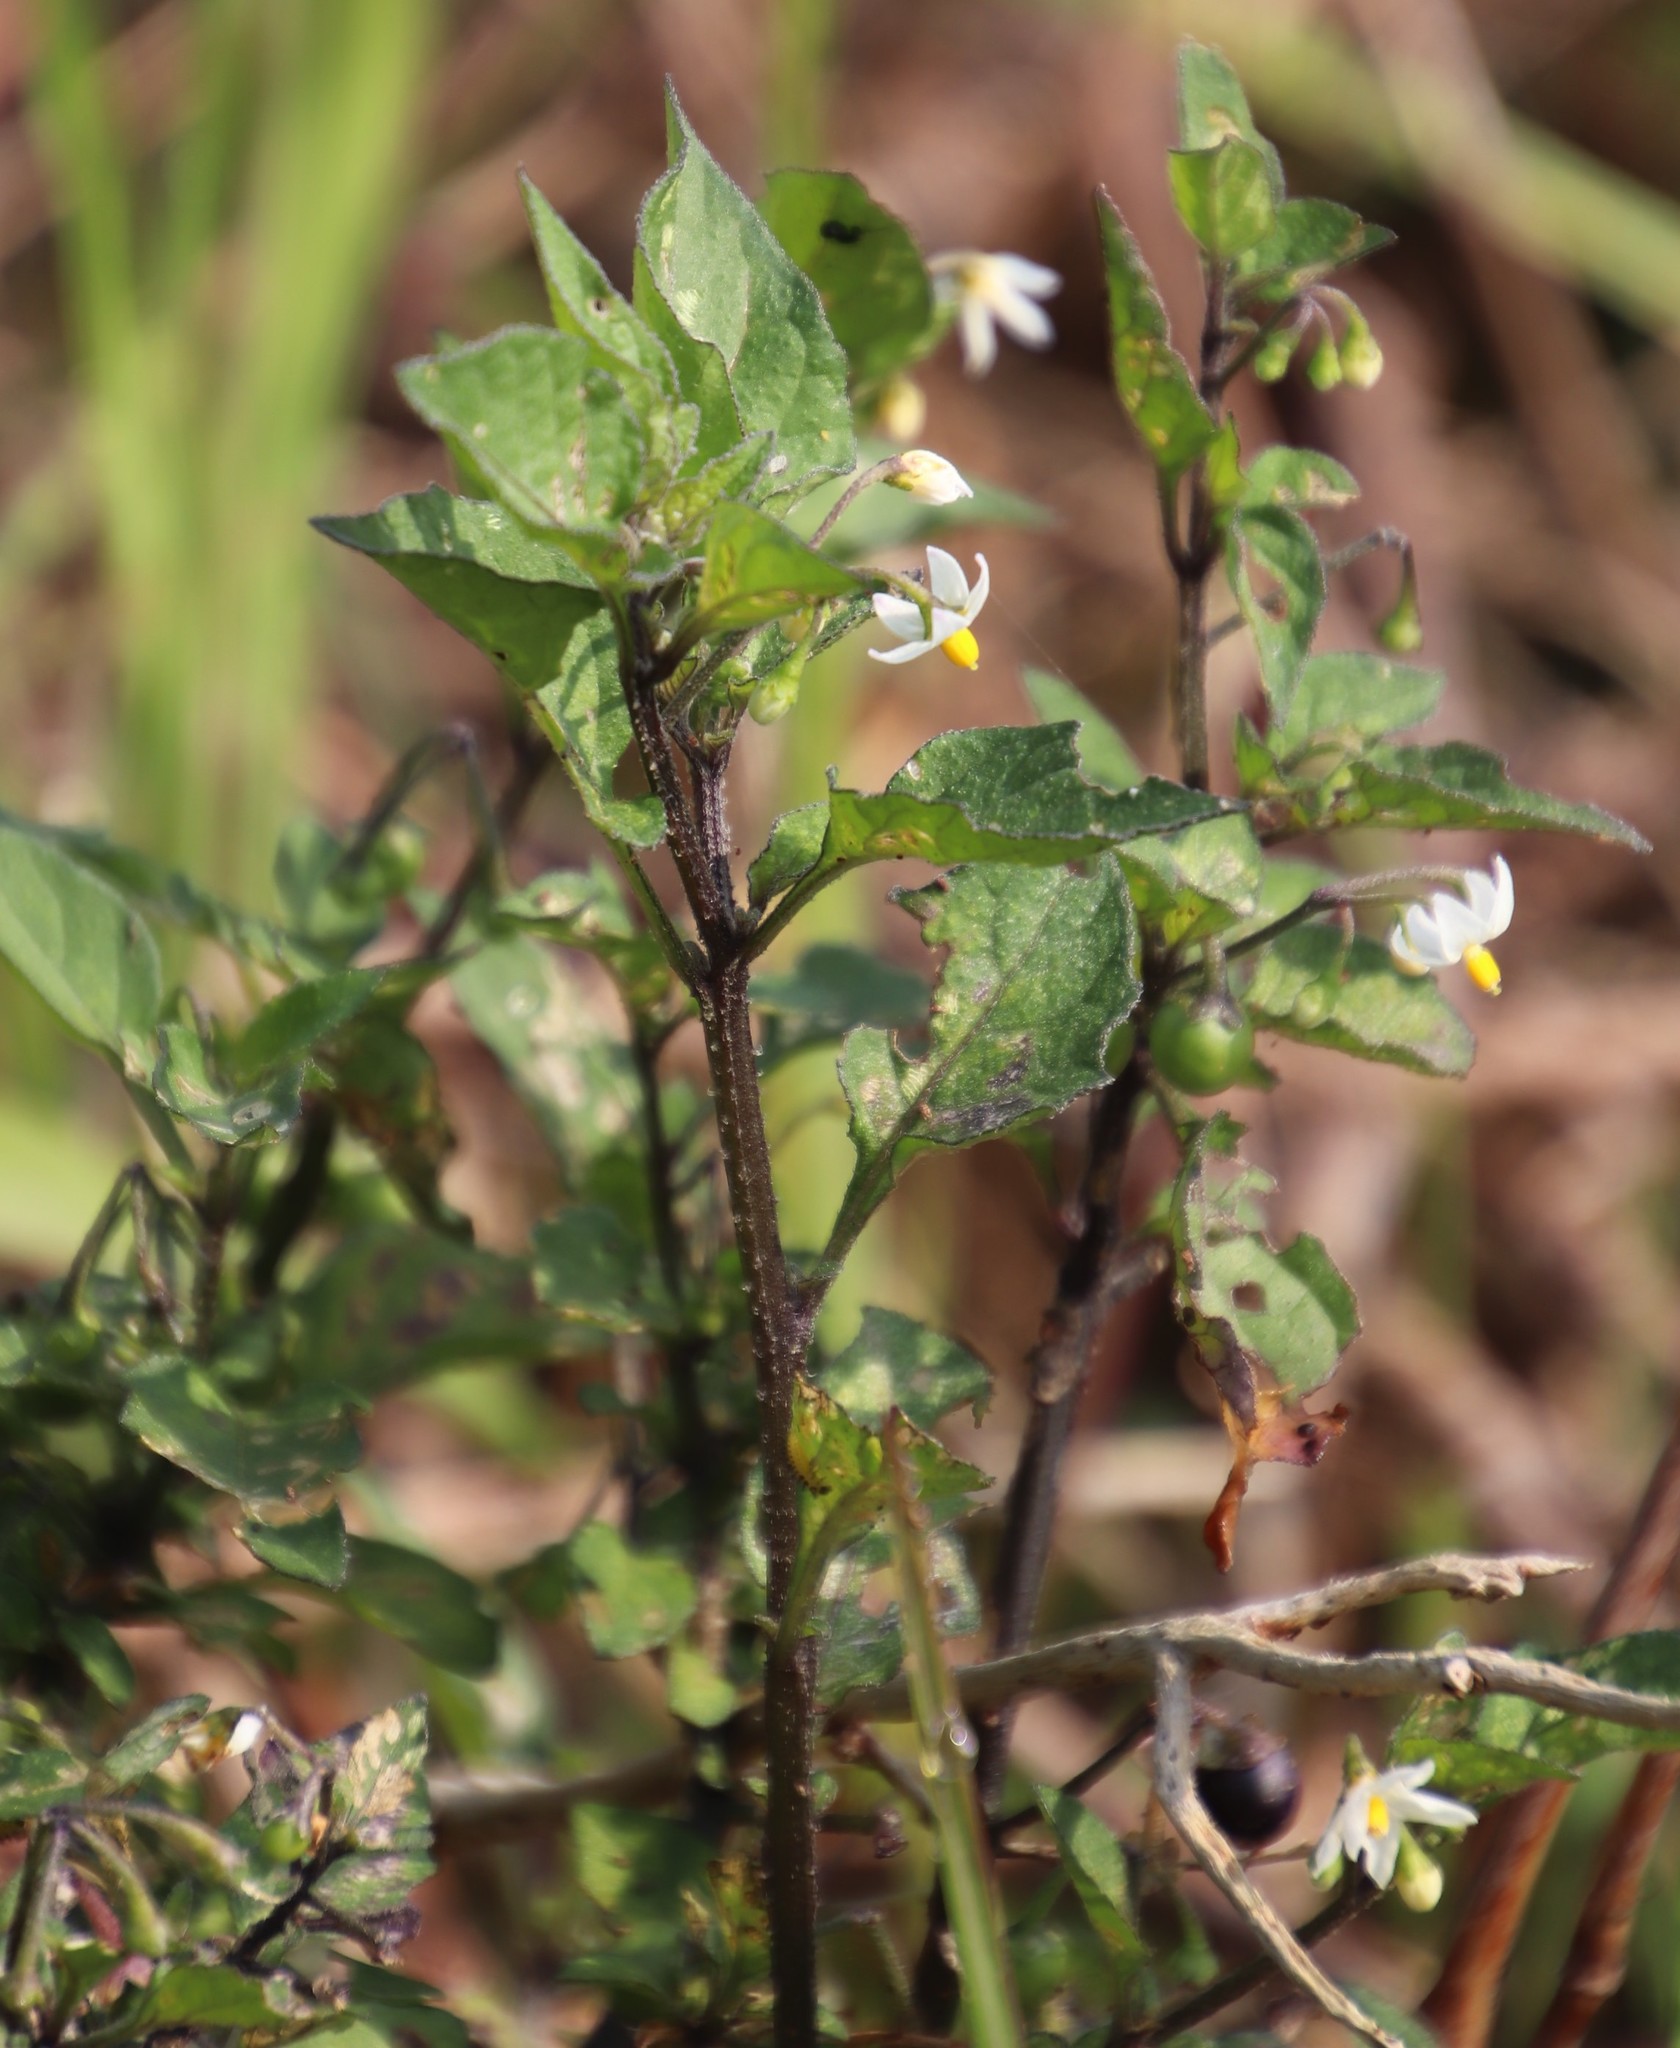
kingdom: Plantae
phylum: Tracheophyta
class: Magnoliopsida
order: Solanales
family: Solanaceae
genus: Solanum
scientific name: Solanum nigrum
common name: Black nightshade
